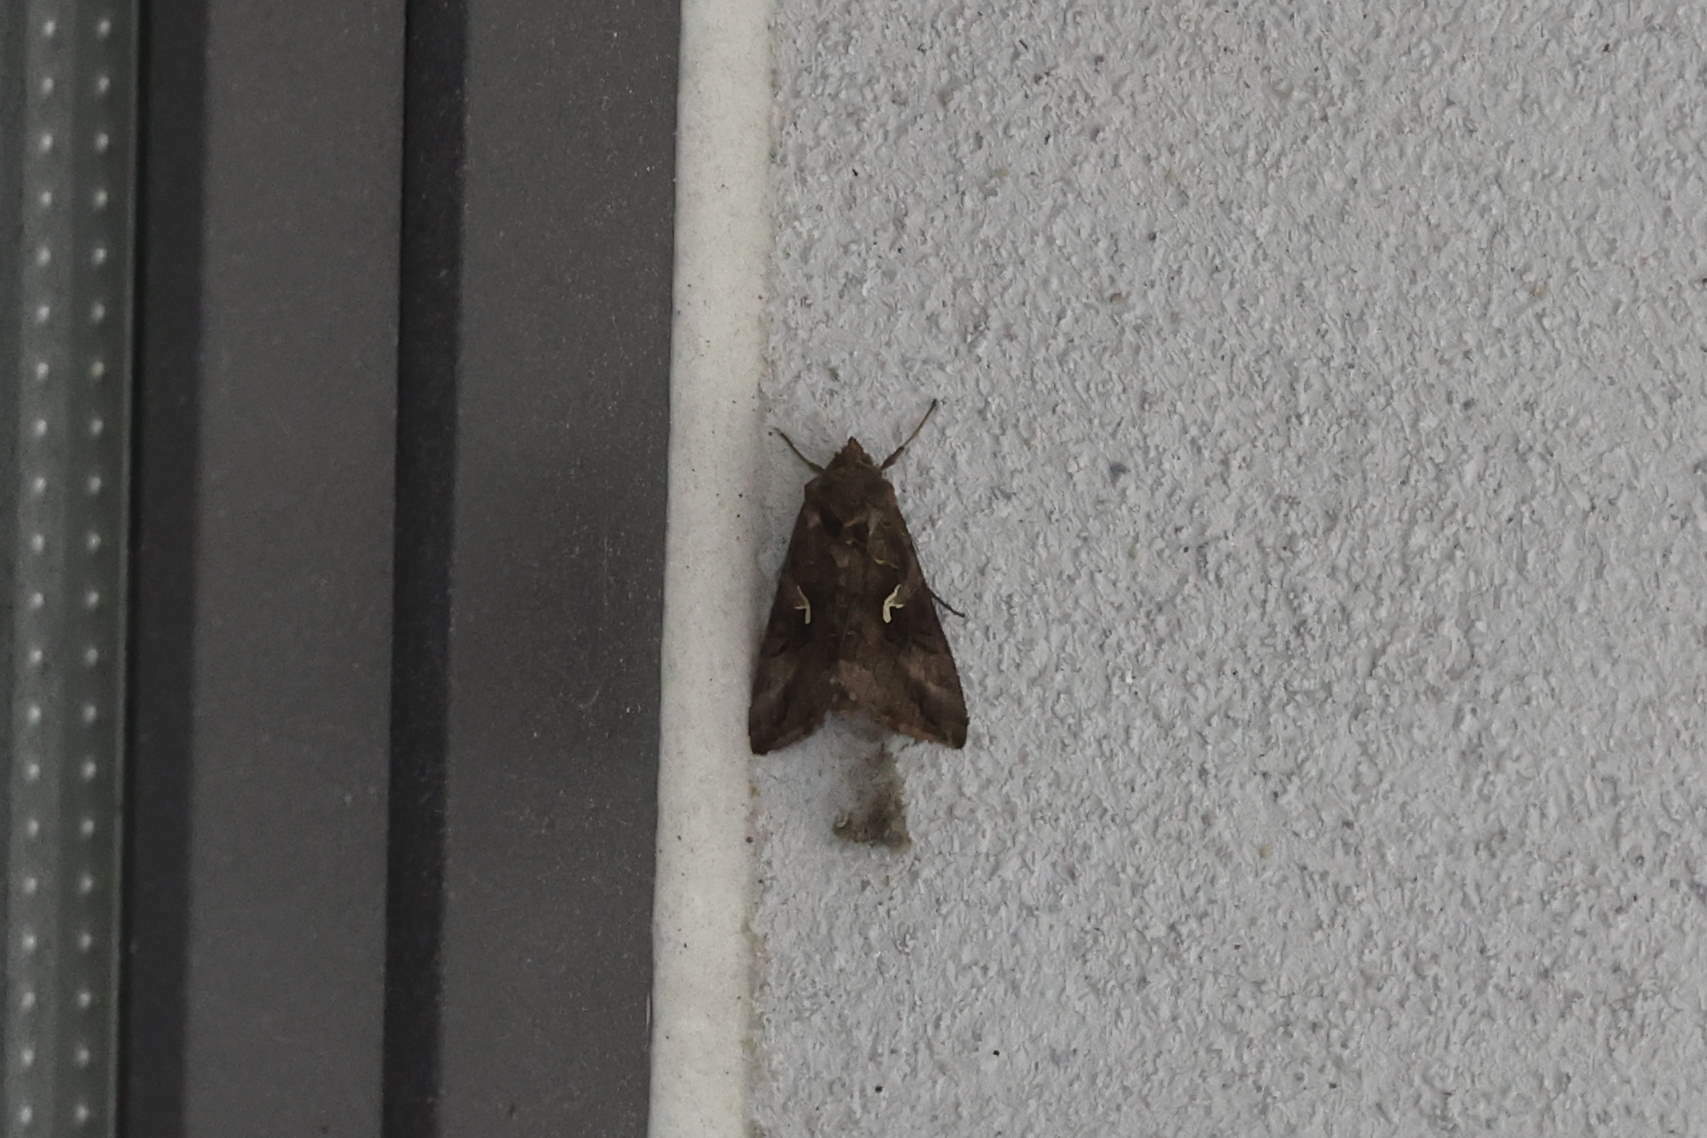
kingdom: Animalia
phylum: Arthropoda
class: Insecta
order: Lepidoptera
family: Noctuidae
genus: Autographa
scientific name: Autographa gamma
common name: Silver y
